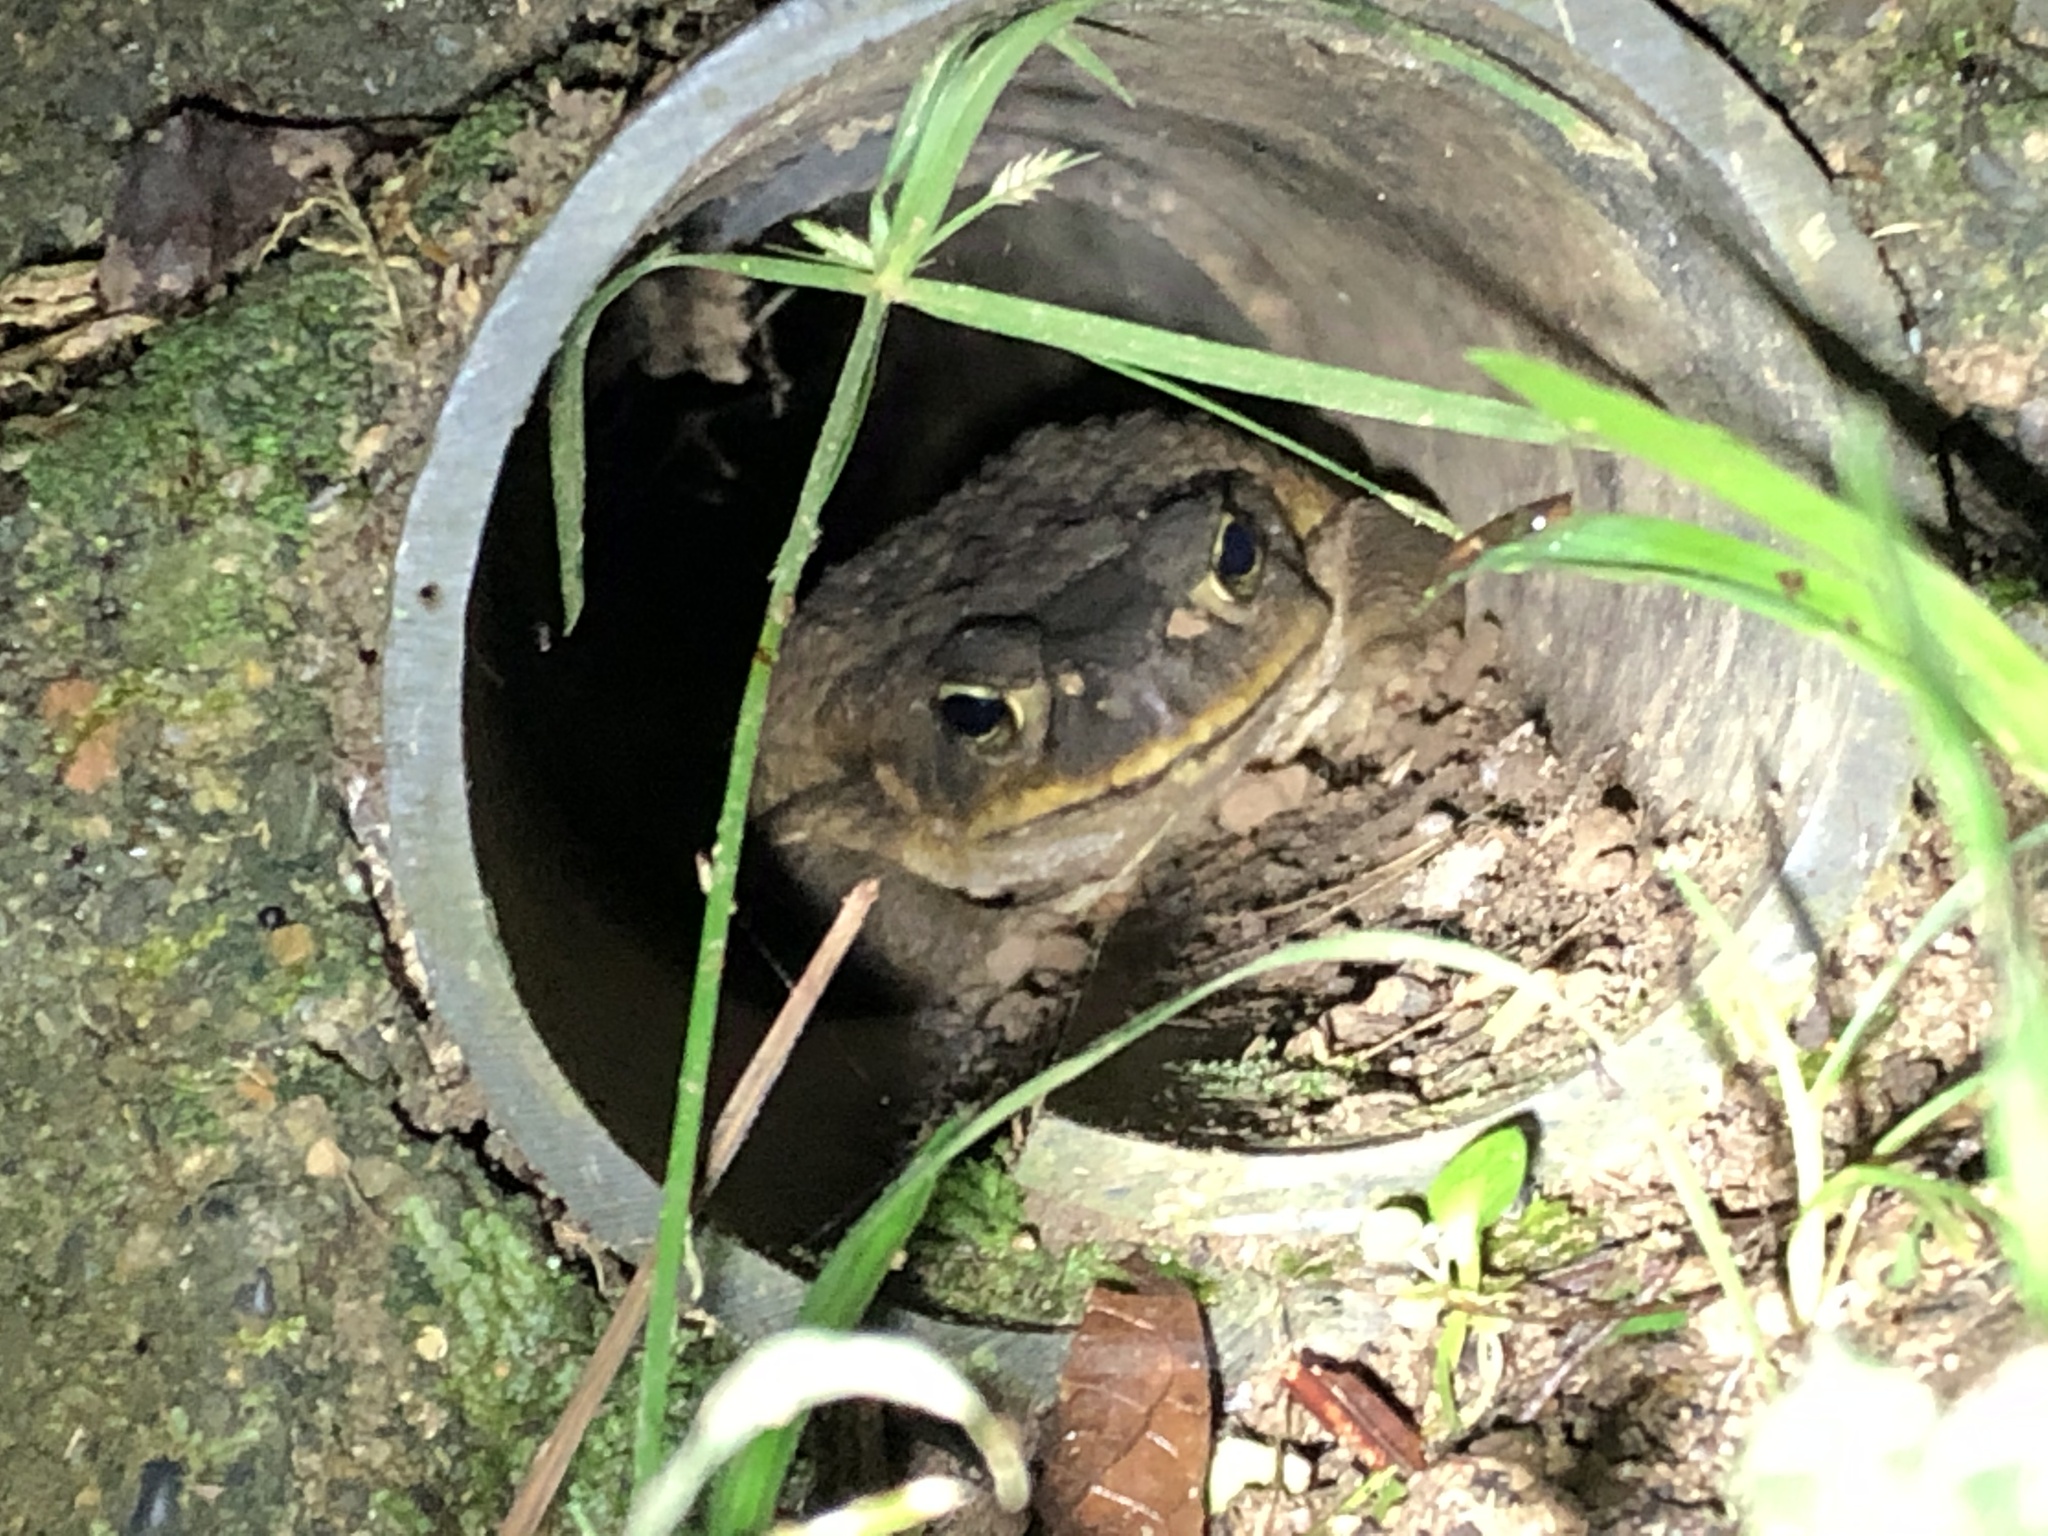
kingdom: Animalia
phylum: Chordata
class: Amphibia
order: Anura
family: Bufonidae
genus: Rhinella
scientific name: Rhinella marina
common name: Cane toad
